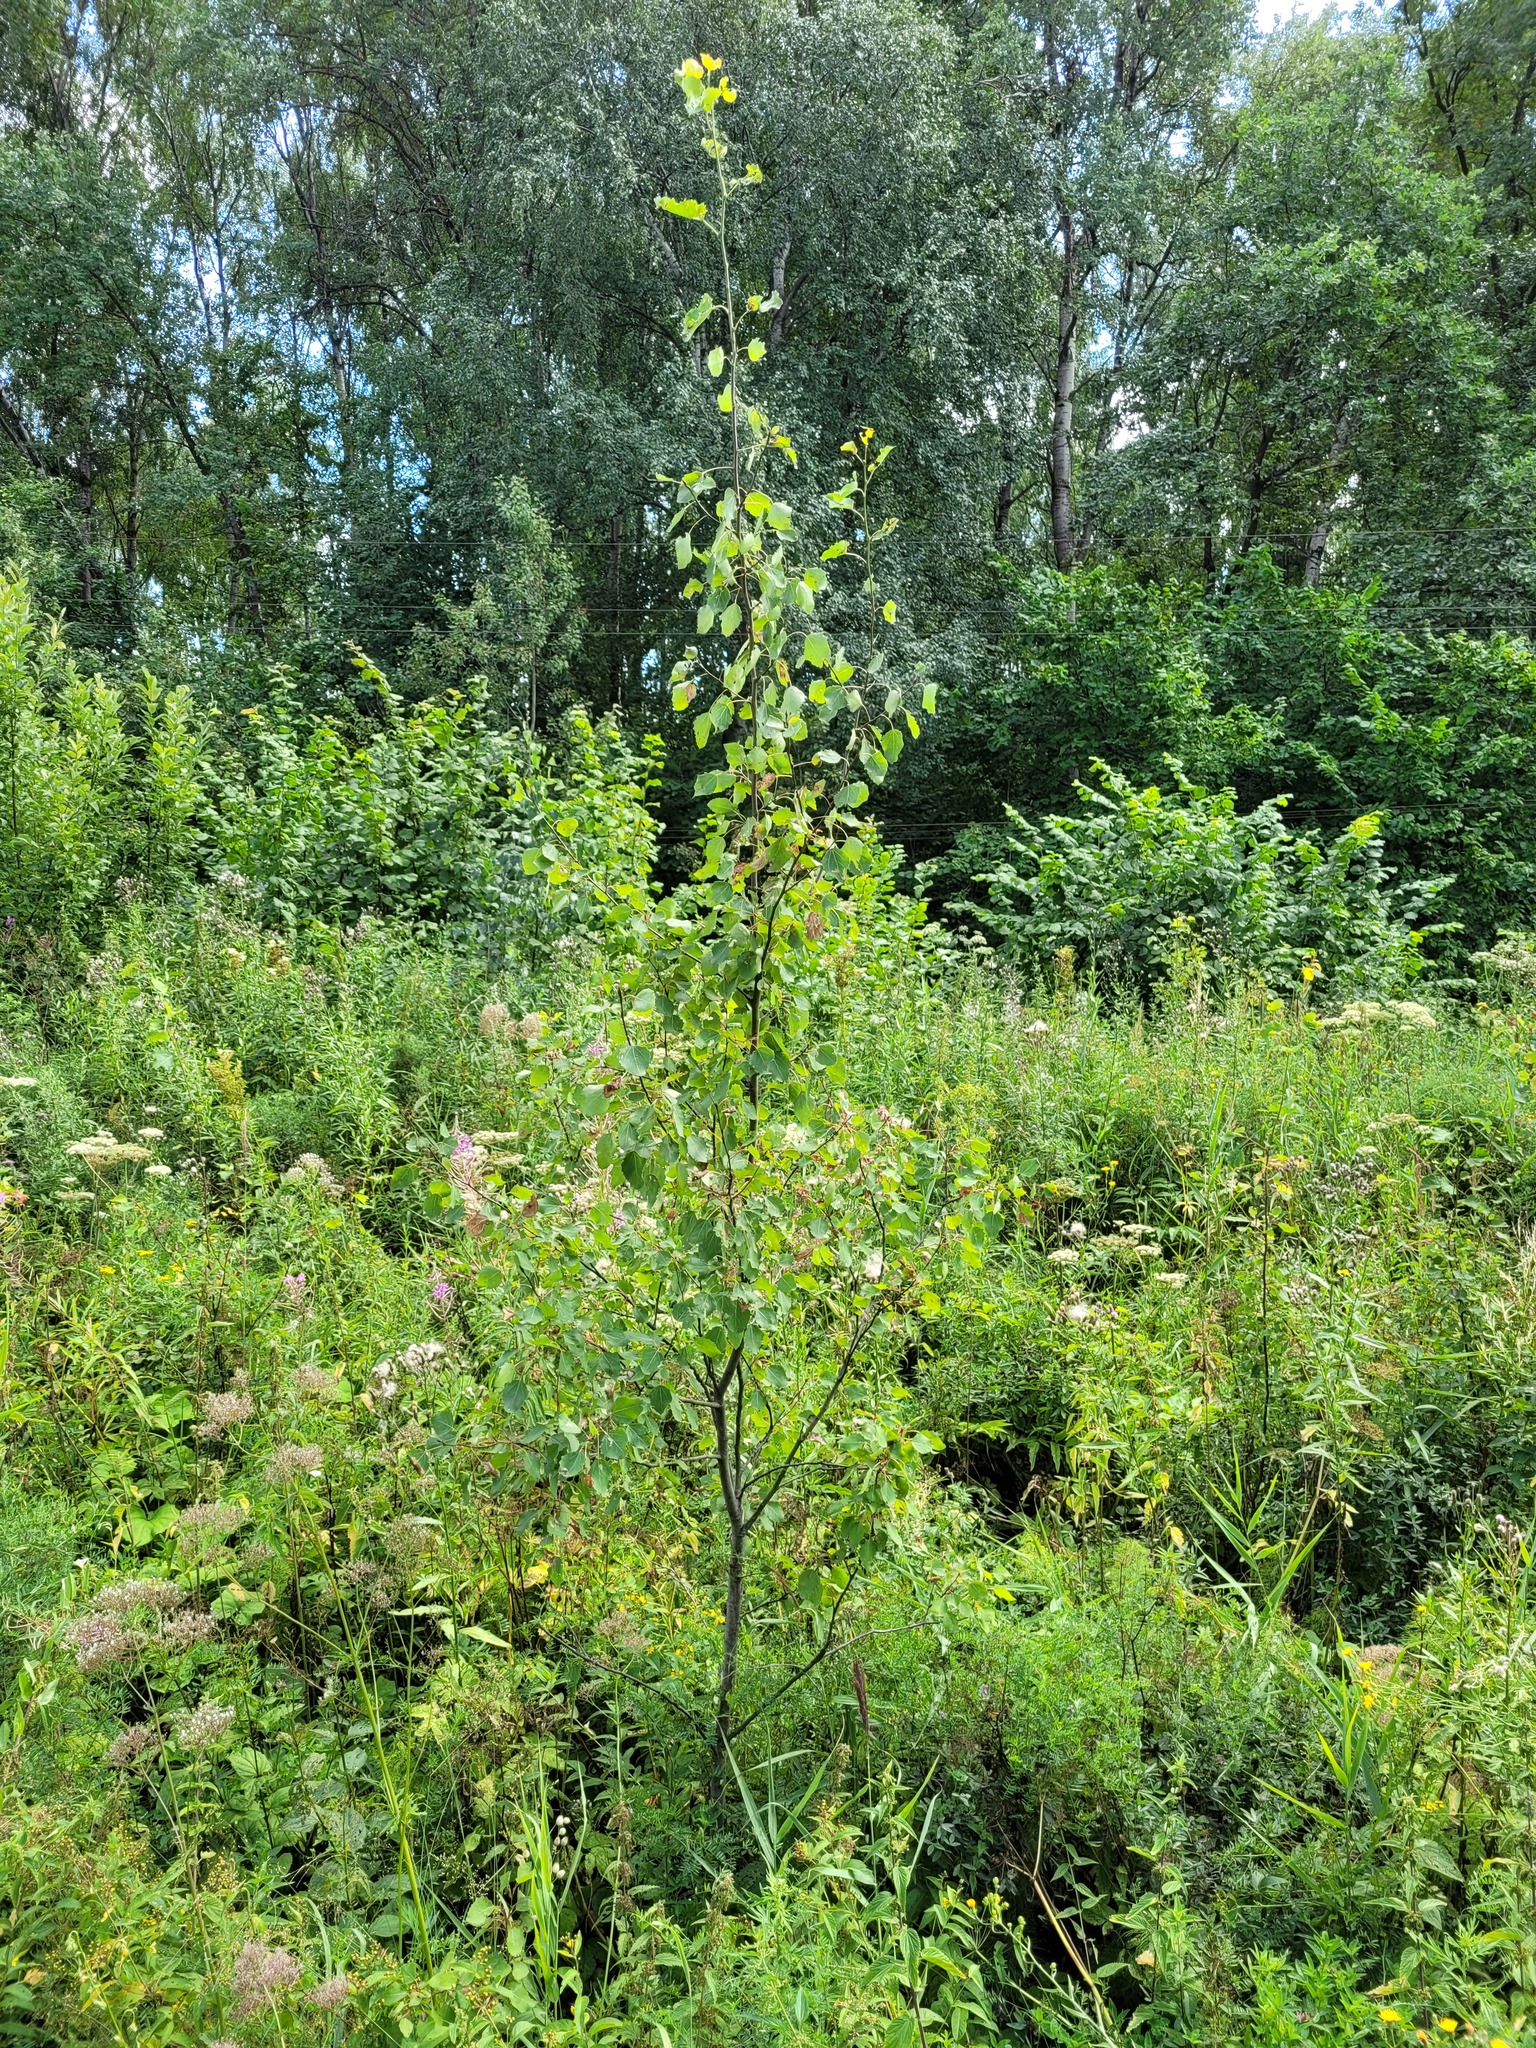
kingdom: Plantae
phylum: Tracheophyta
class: Magnoliopsida
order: Malpighiales
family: Salicaceae
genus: Populus
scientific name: Populus tremula
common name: European aspen
